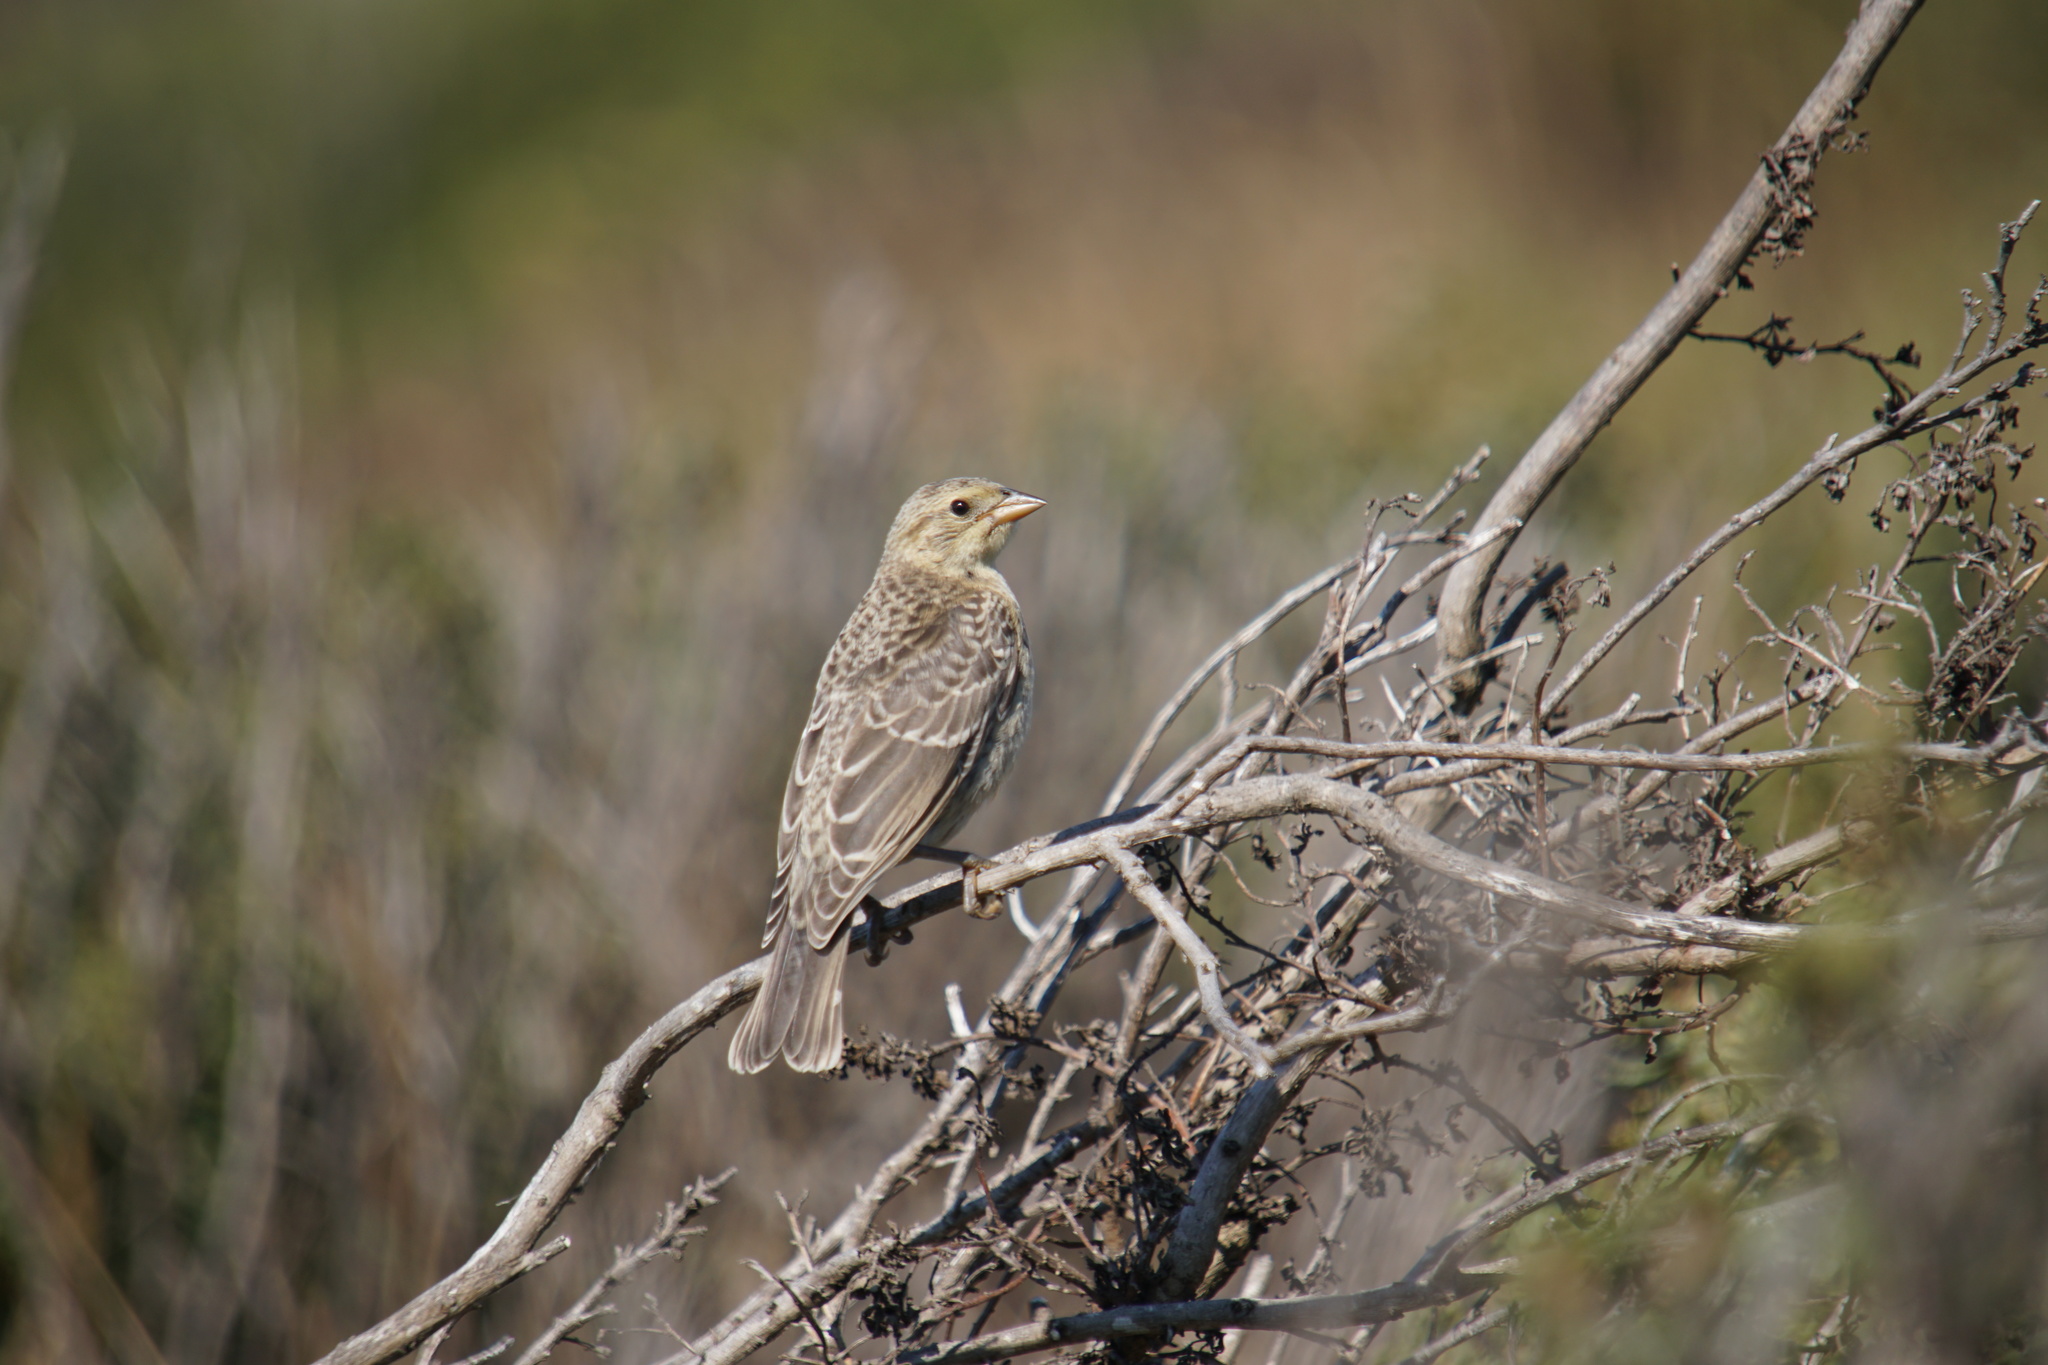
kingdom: Animalia
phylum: Chordata
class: Aves
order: Passeriformes
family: Icteridae
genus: Molothrus
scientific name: Molothrus ater
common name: Brown-headed cowbird
